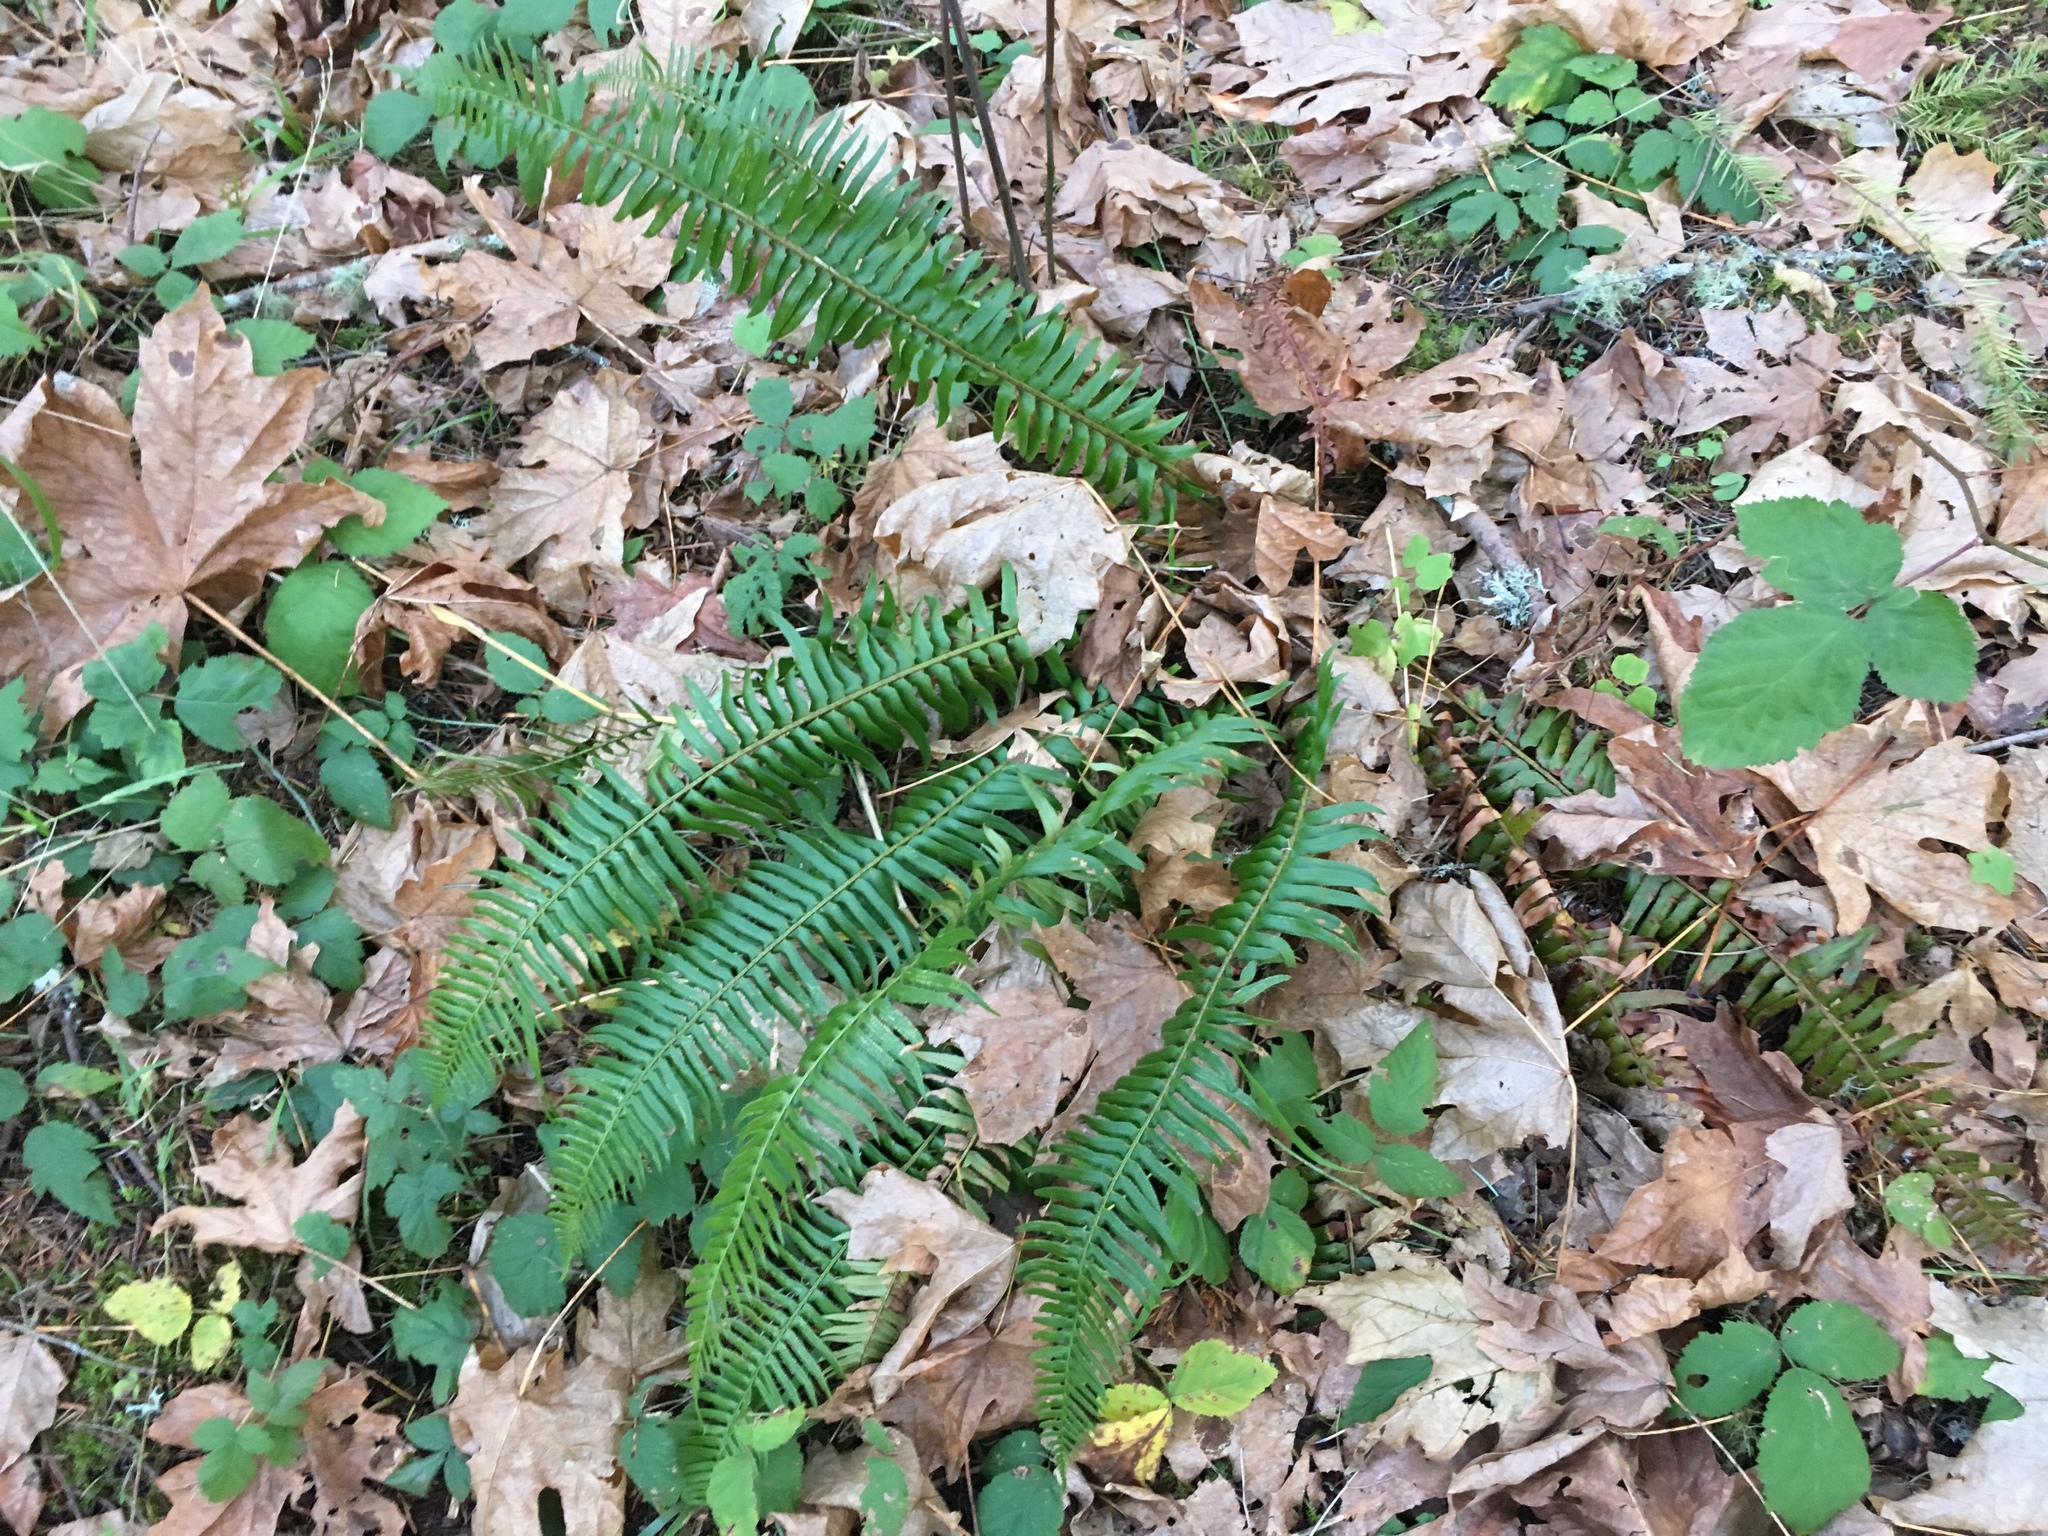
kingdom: Plantae
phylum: Tracheophyta
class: Polypodiopsida
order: Polypodiales
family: Dryopteridaceae
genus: Polystichum
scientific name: Polystichum munitum
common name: Western sword-fern
